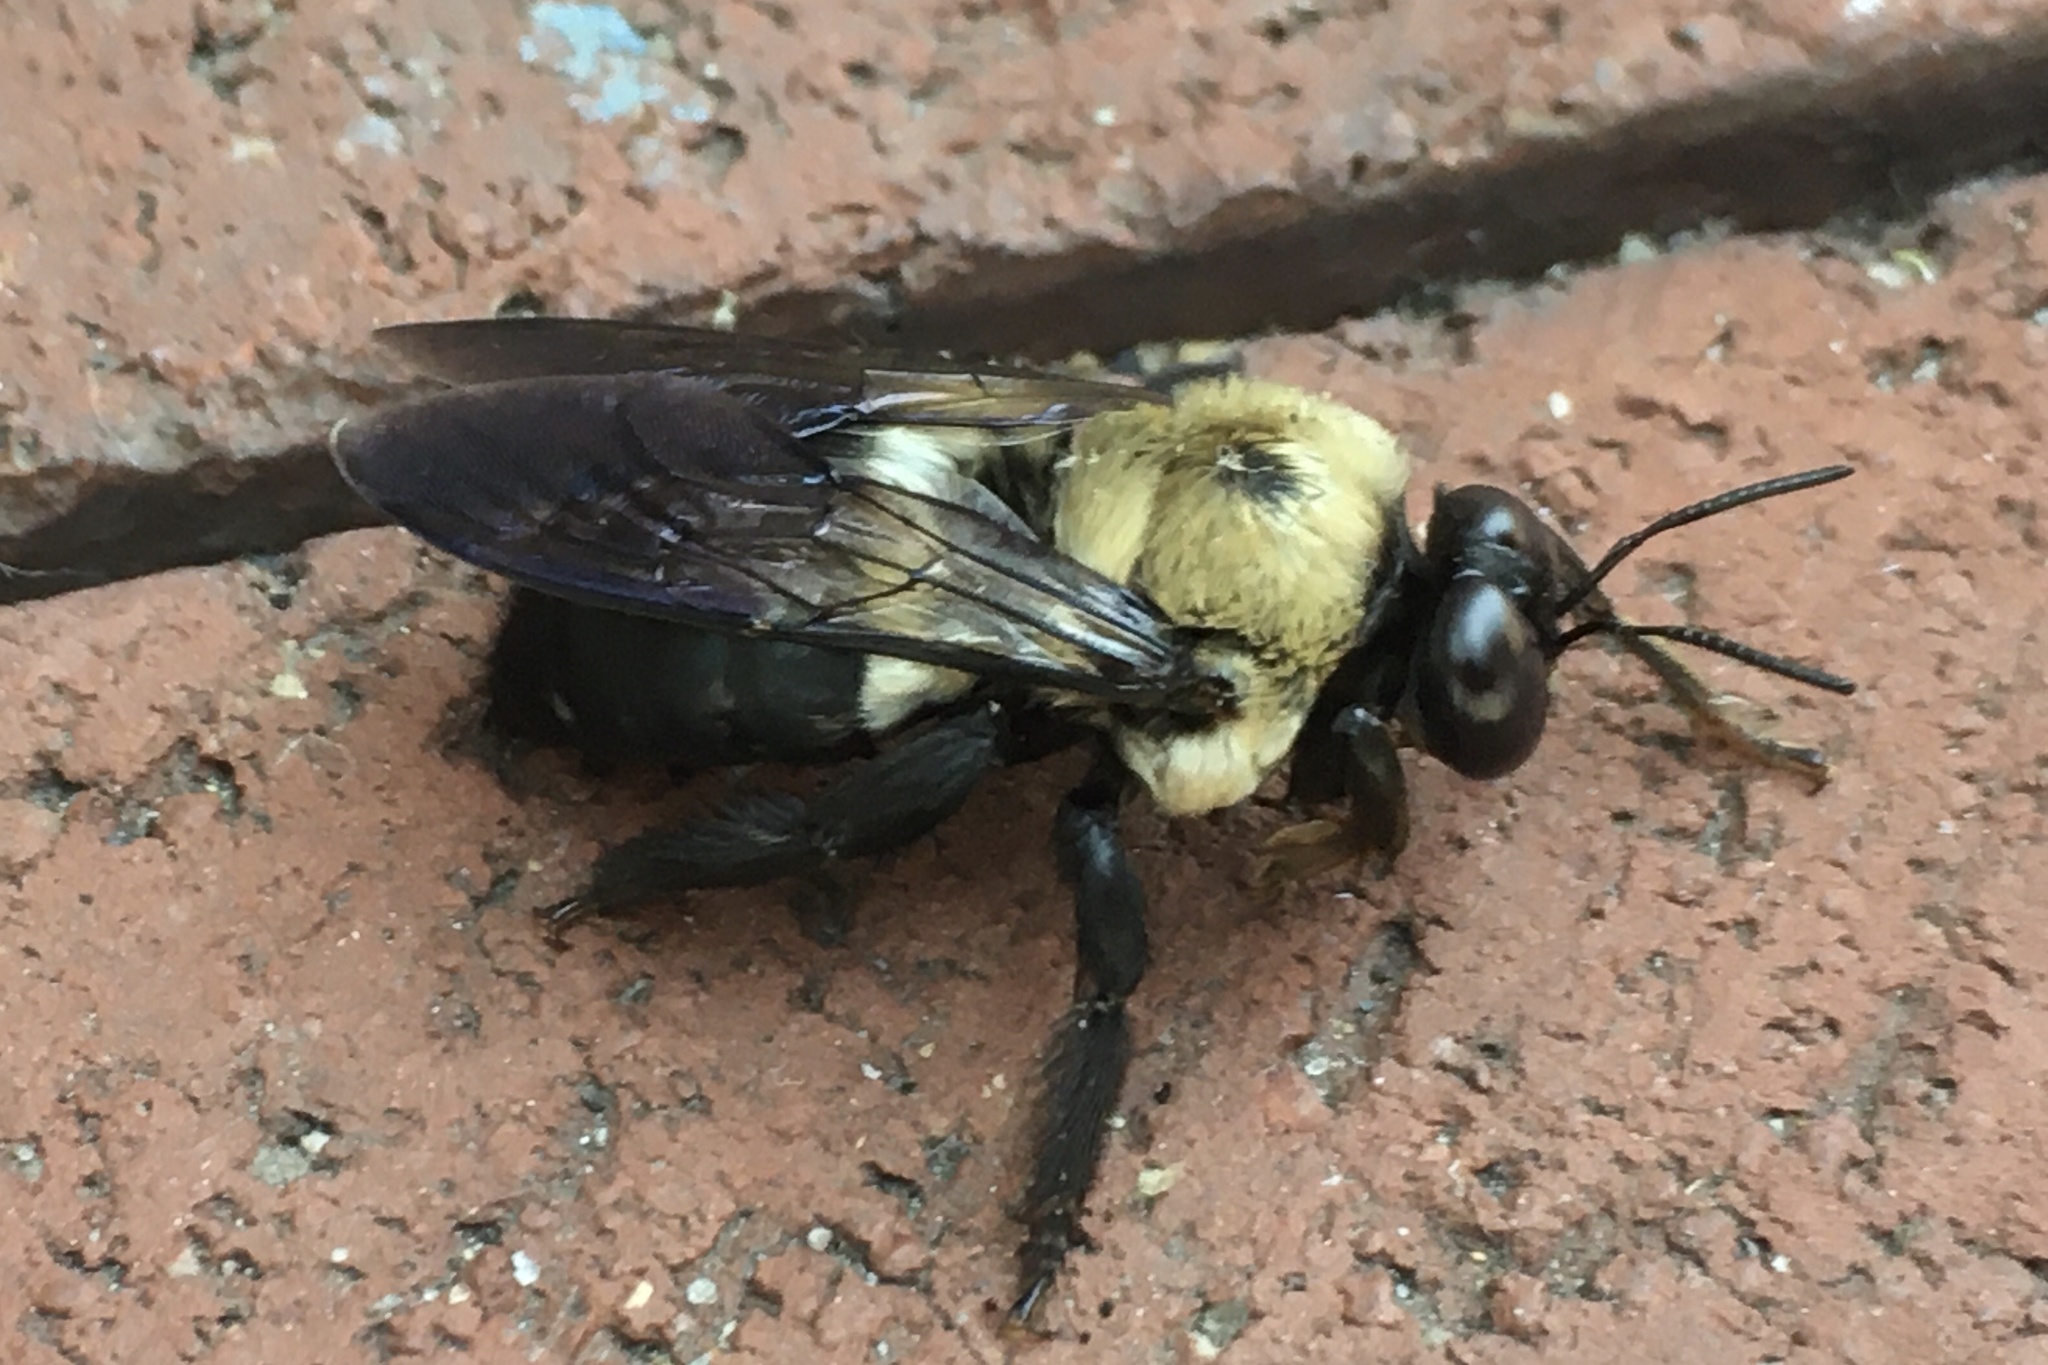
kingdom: Animalia
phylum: Arthropoda
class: Insecta
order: Hymenoptera
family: Apidae
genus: Xylocopa
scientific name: Xylocopa virginica
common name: Carpenter bee
